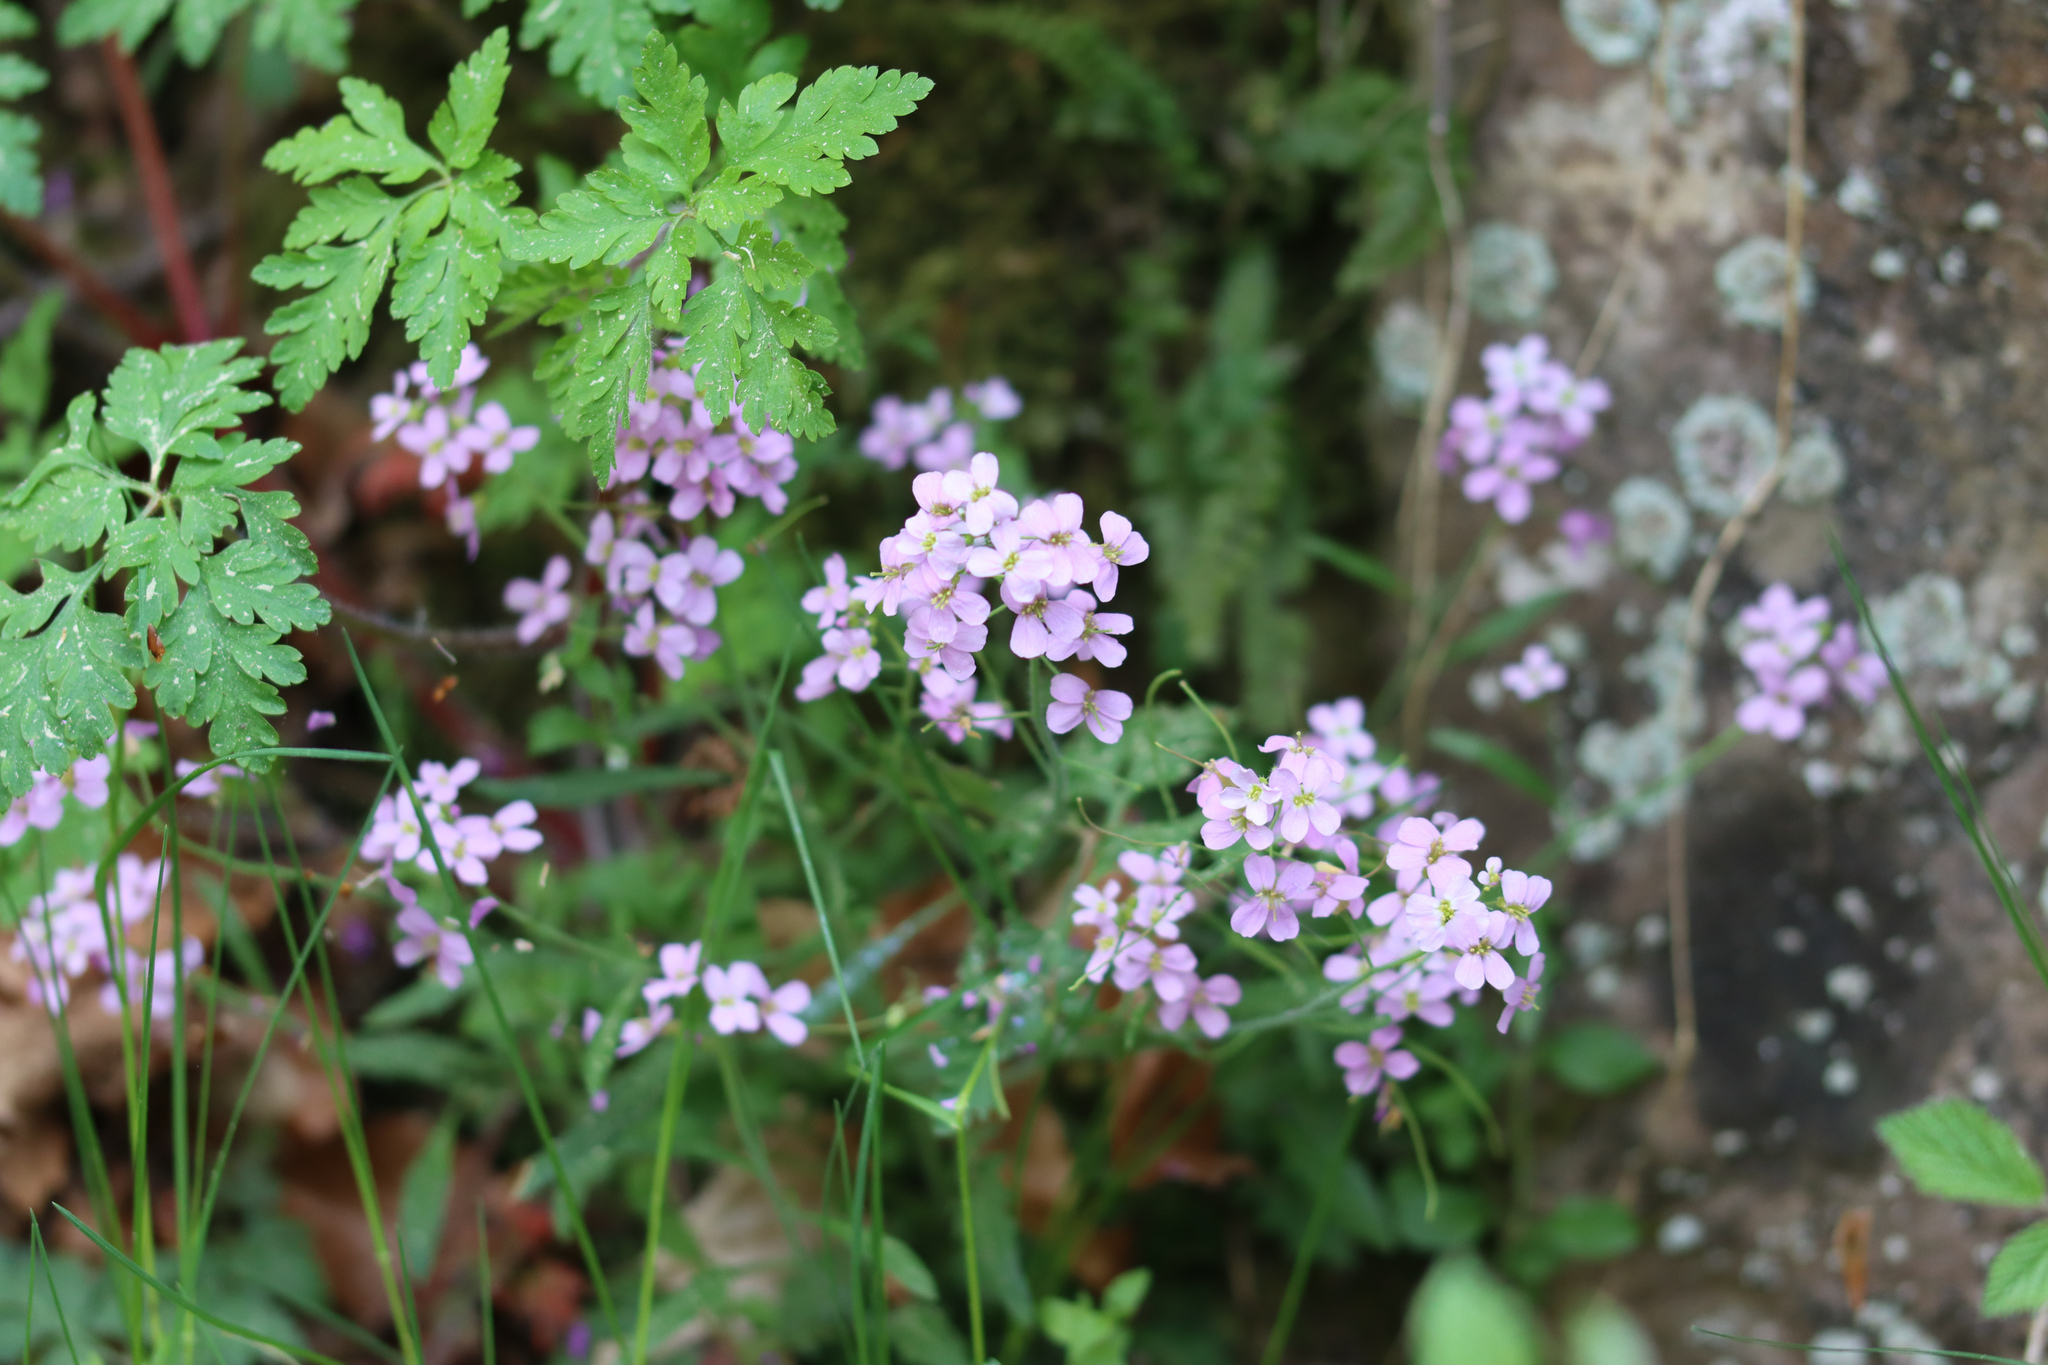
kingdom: Plantae
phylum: Tracheophyta
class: Magnoliopsida
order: Brassicales
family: Brassicaceae
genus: Arabidopsis
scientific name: Arabidopsis arenosa
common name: Sand rock-cress
